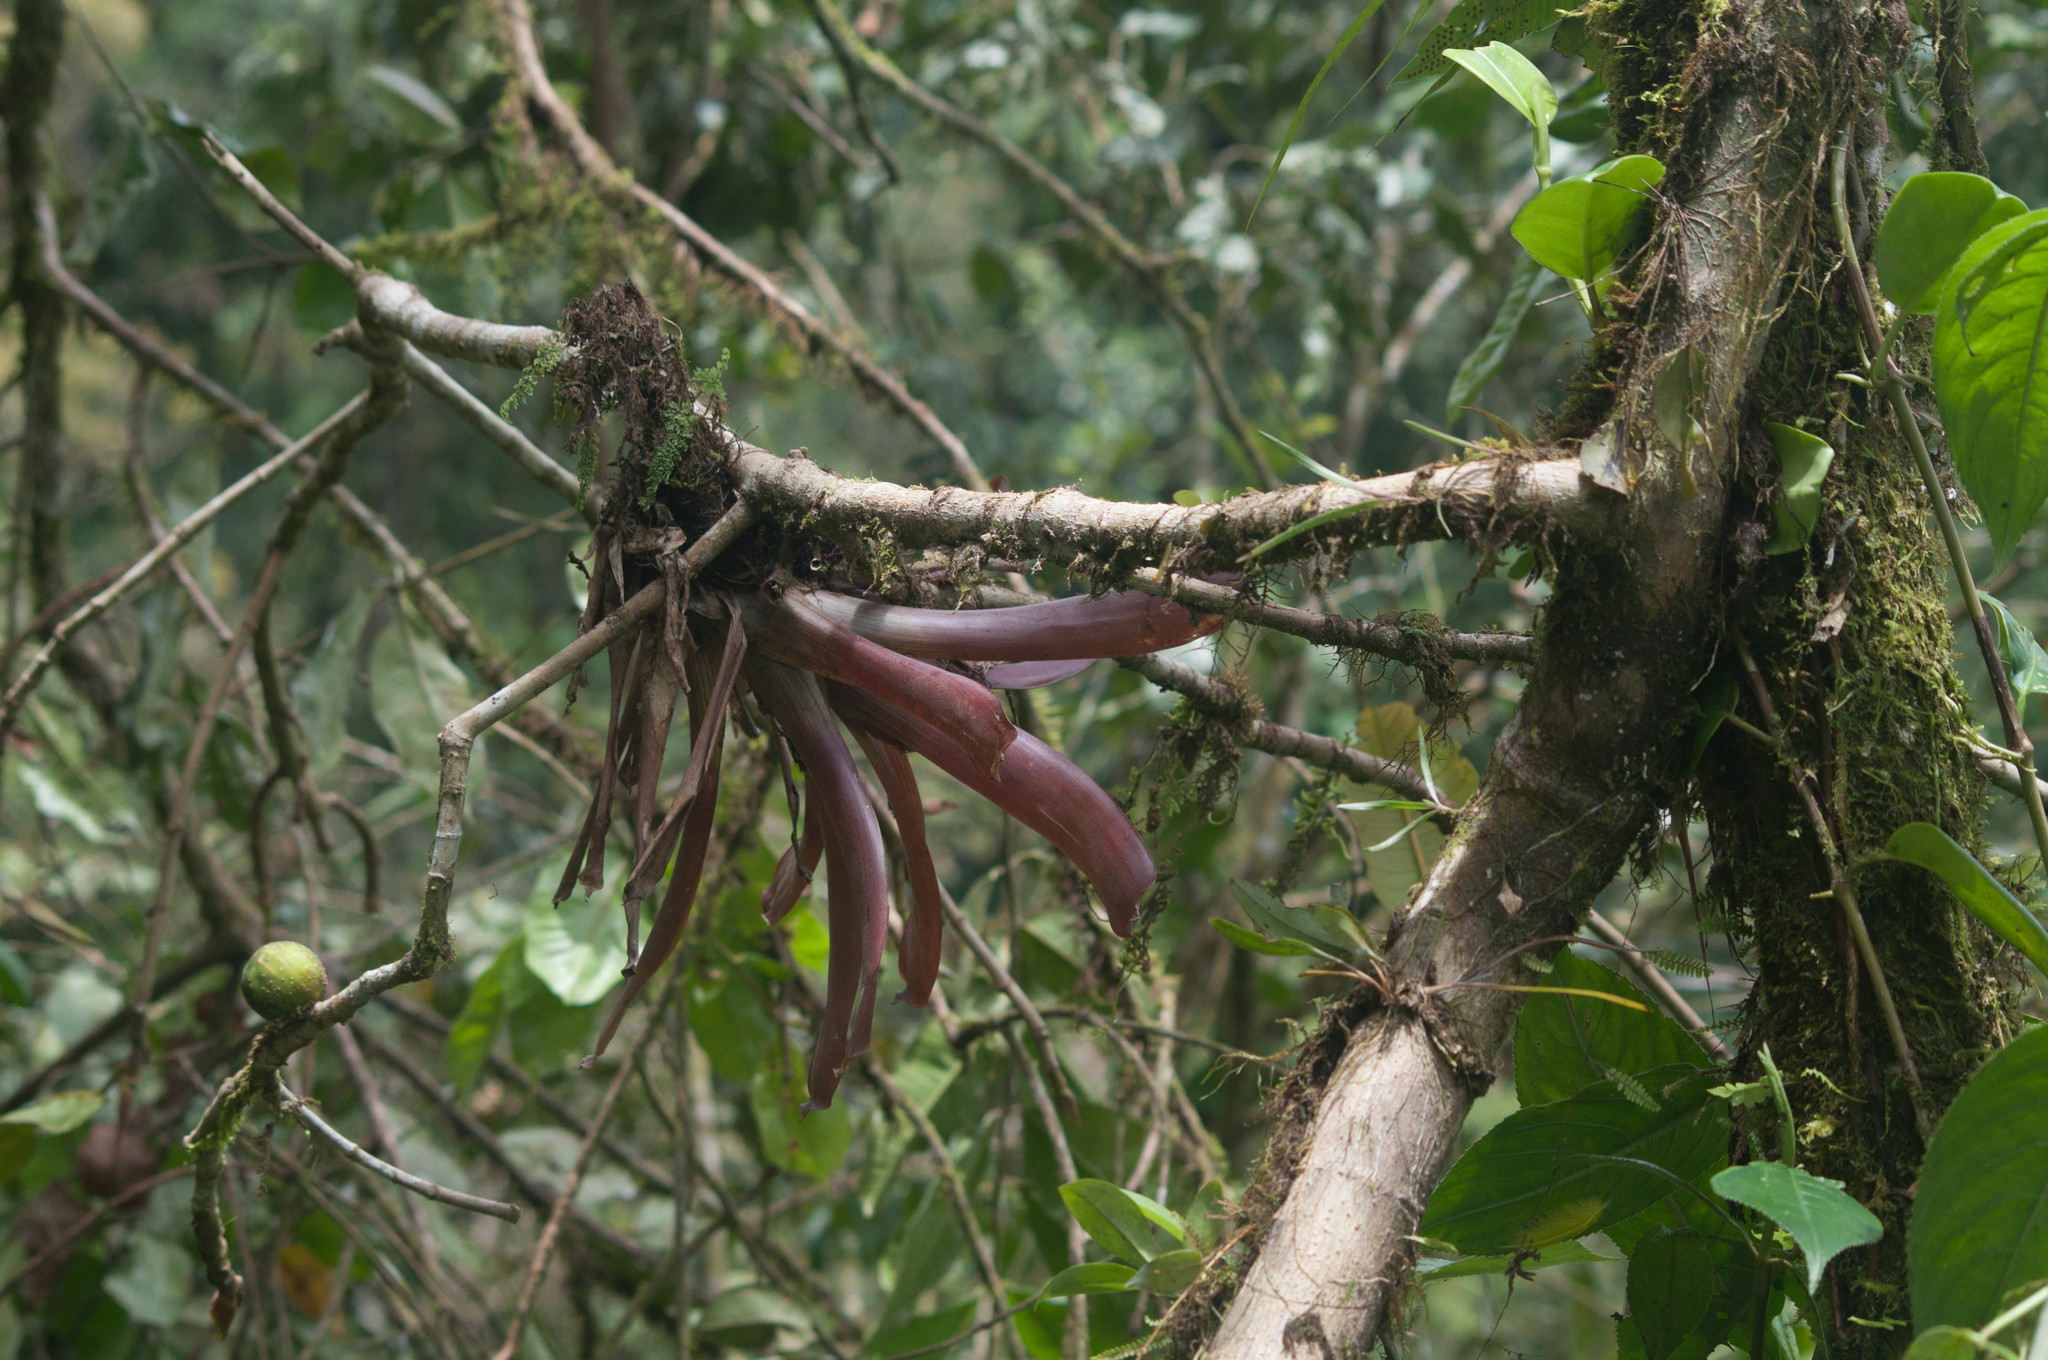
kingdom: Plantae
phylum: Tracheophyta
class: Liliopsida
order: Poales
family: Bromeliaceae
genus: Guzmania
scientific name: Guzmania remyi
